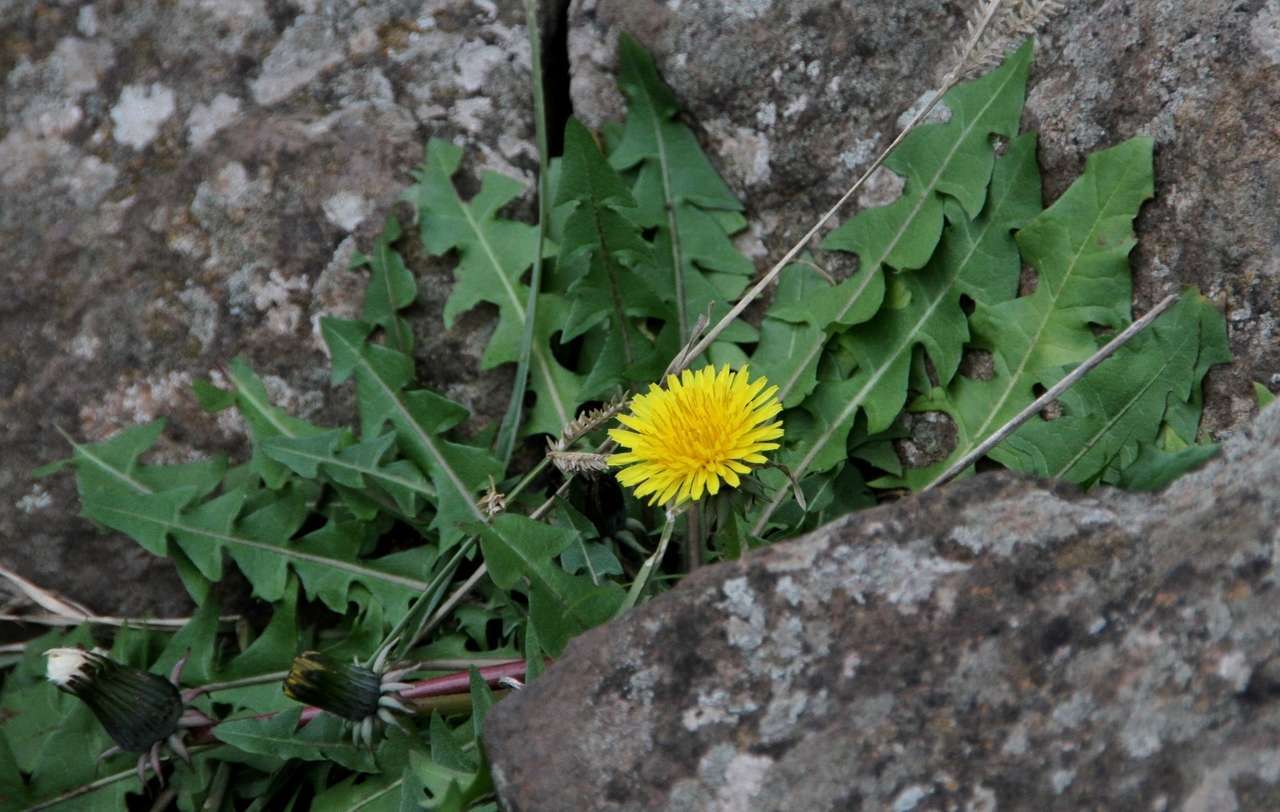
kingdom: Plantae
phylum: Tracheophyta
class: Magnoliopsida
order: Asterales
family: Asteraceae
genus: Taraxacum
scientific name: Taraxacum officinale
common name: Common dandelion
